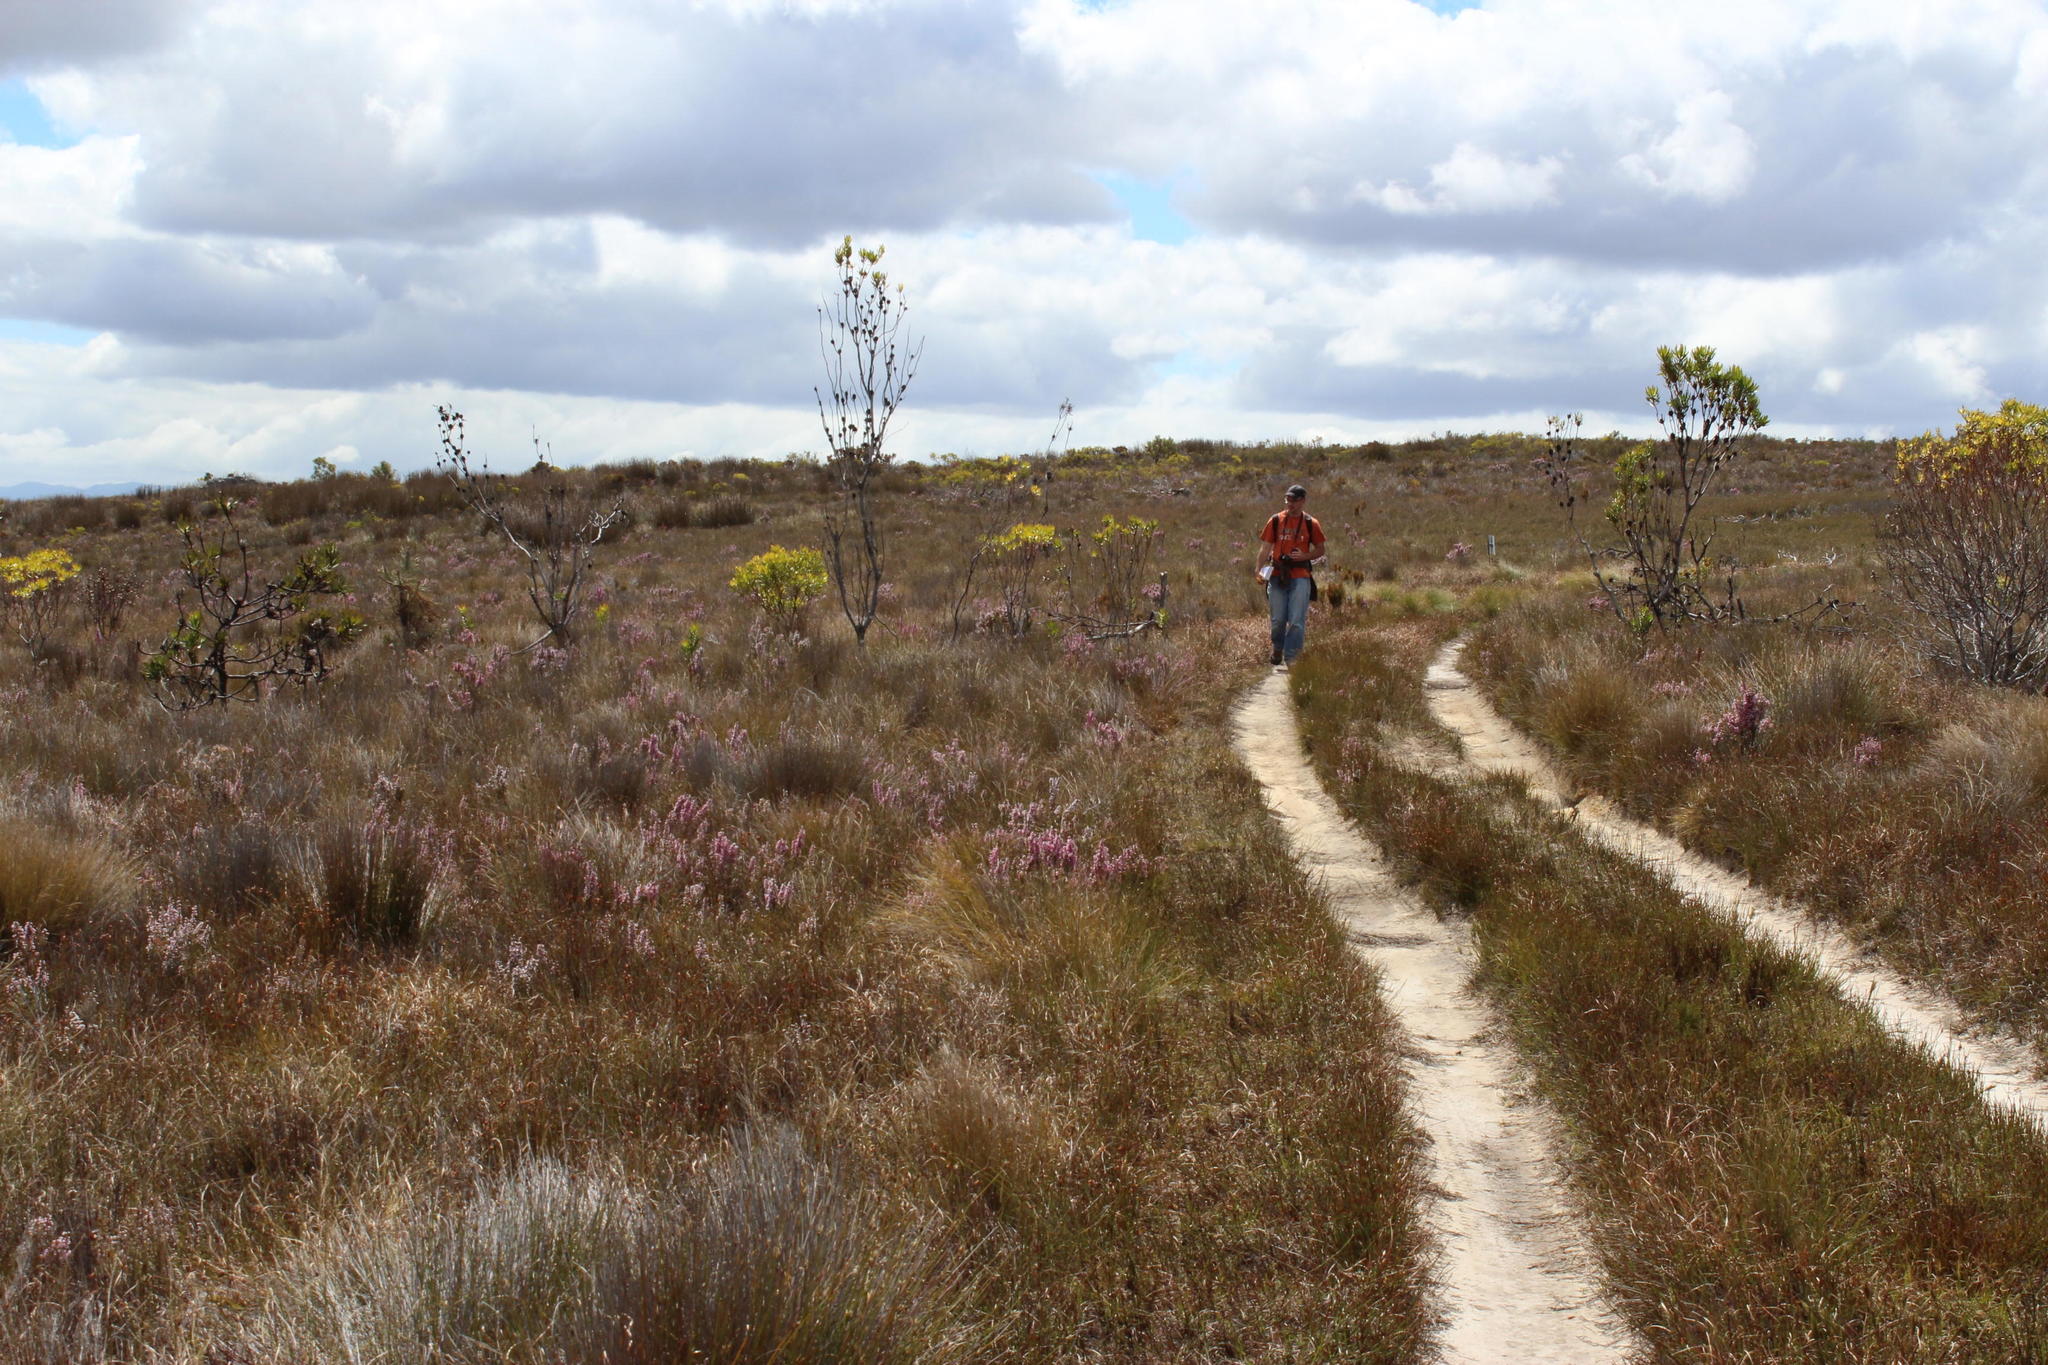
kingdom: Plantae
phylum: Tracheophyta
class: Magnoliopsida
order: Ericales
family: Ericaceae
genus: Erica
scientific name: Erica ovina
